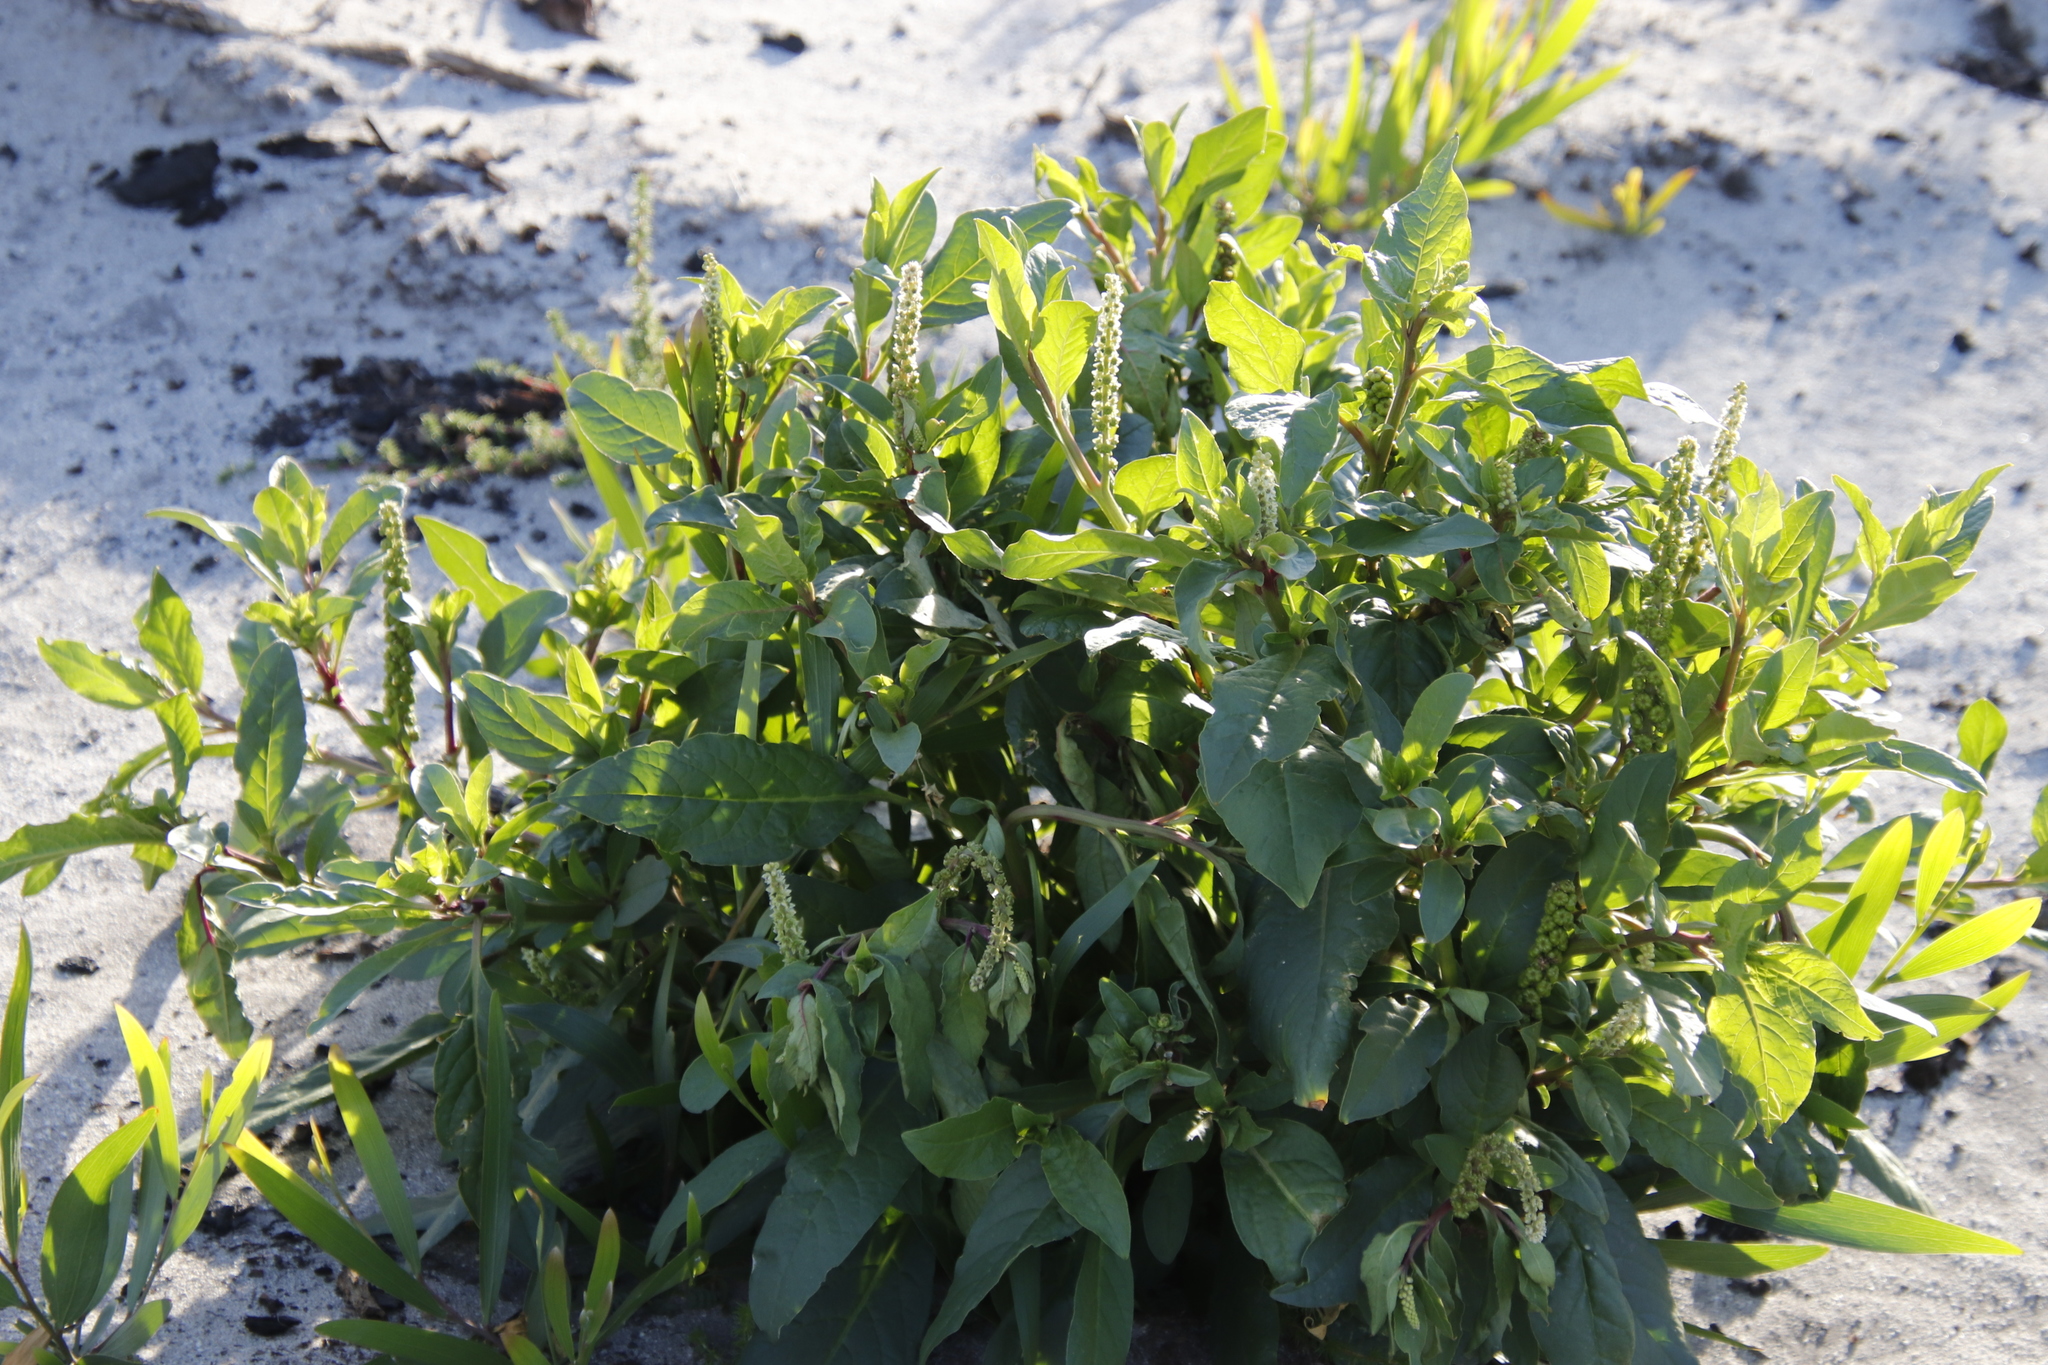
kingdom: Plantae
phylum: Tracheophyta
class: Magnoliopsida
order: Caryophyllales
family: Phytolaccaceae
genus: Phytolacca
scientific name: Phytolacca icosandra
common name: Button pokeweed
